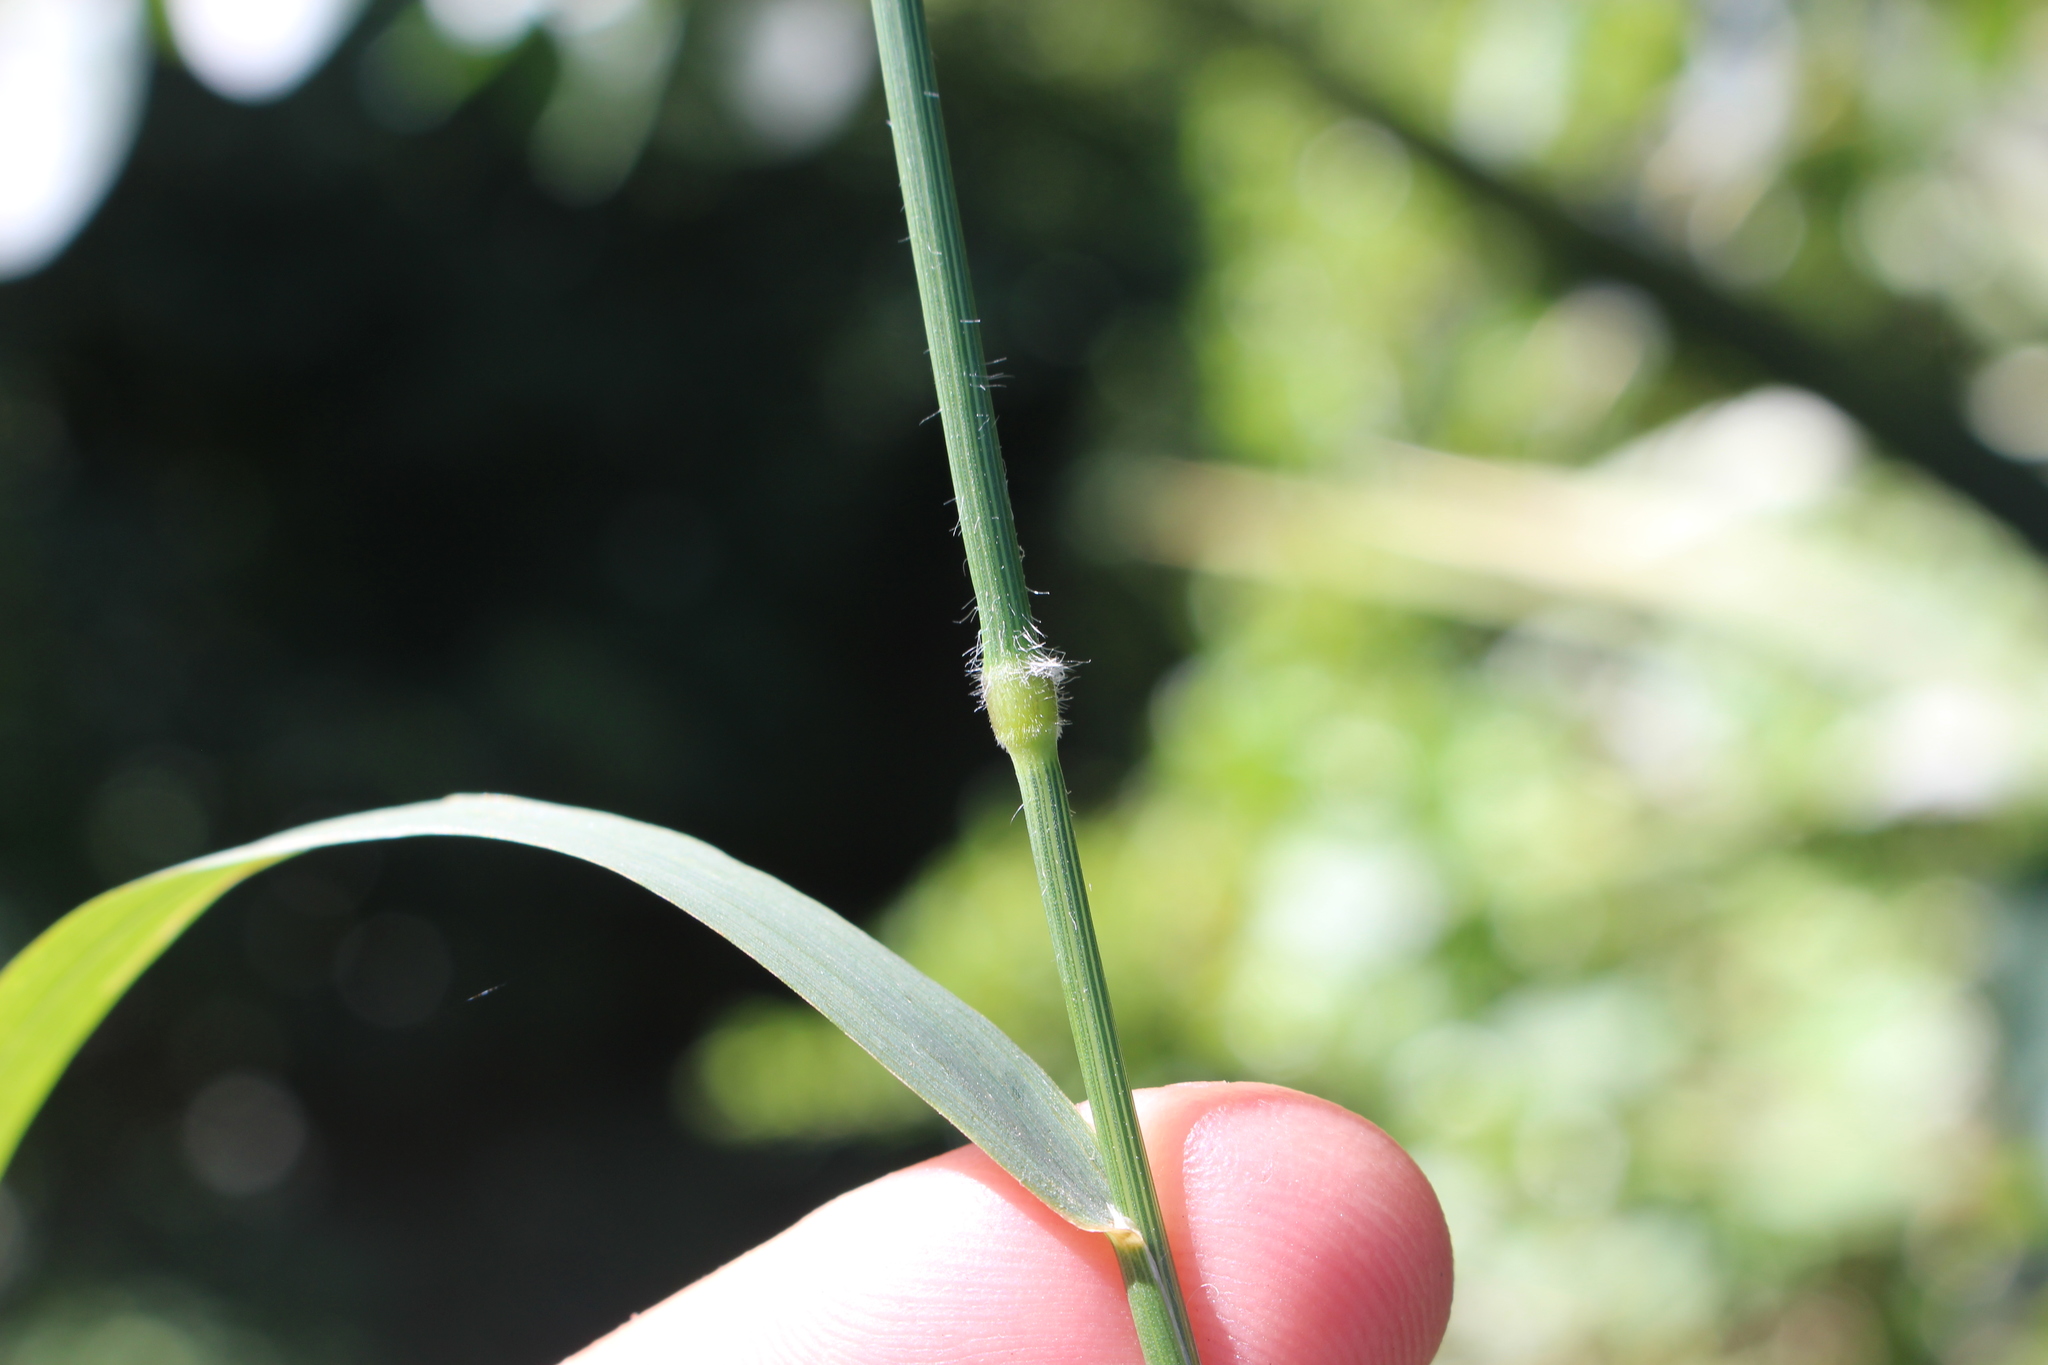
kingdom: Plantae
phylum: Tracheophyta
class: Liliopsida
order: Poales
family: Poaceae
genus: Arrhenatherum
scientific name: Arrhenatherum elatius
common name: Tall oatgrass
